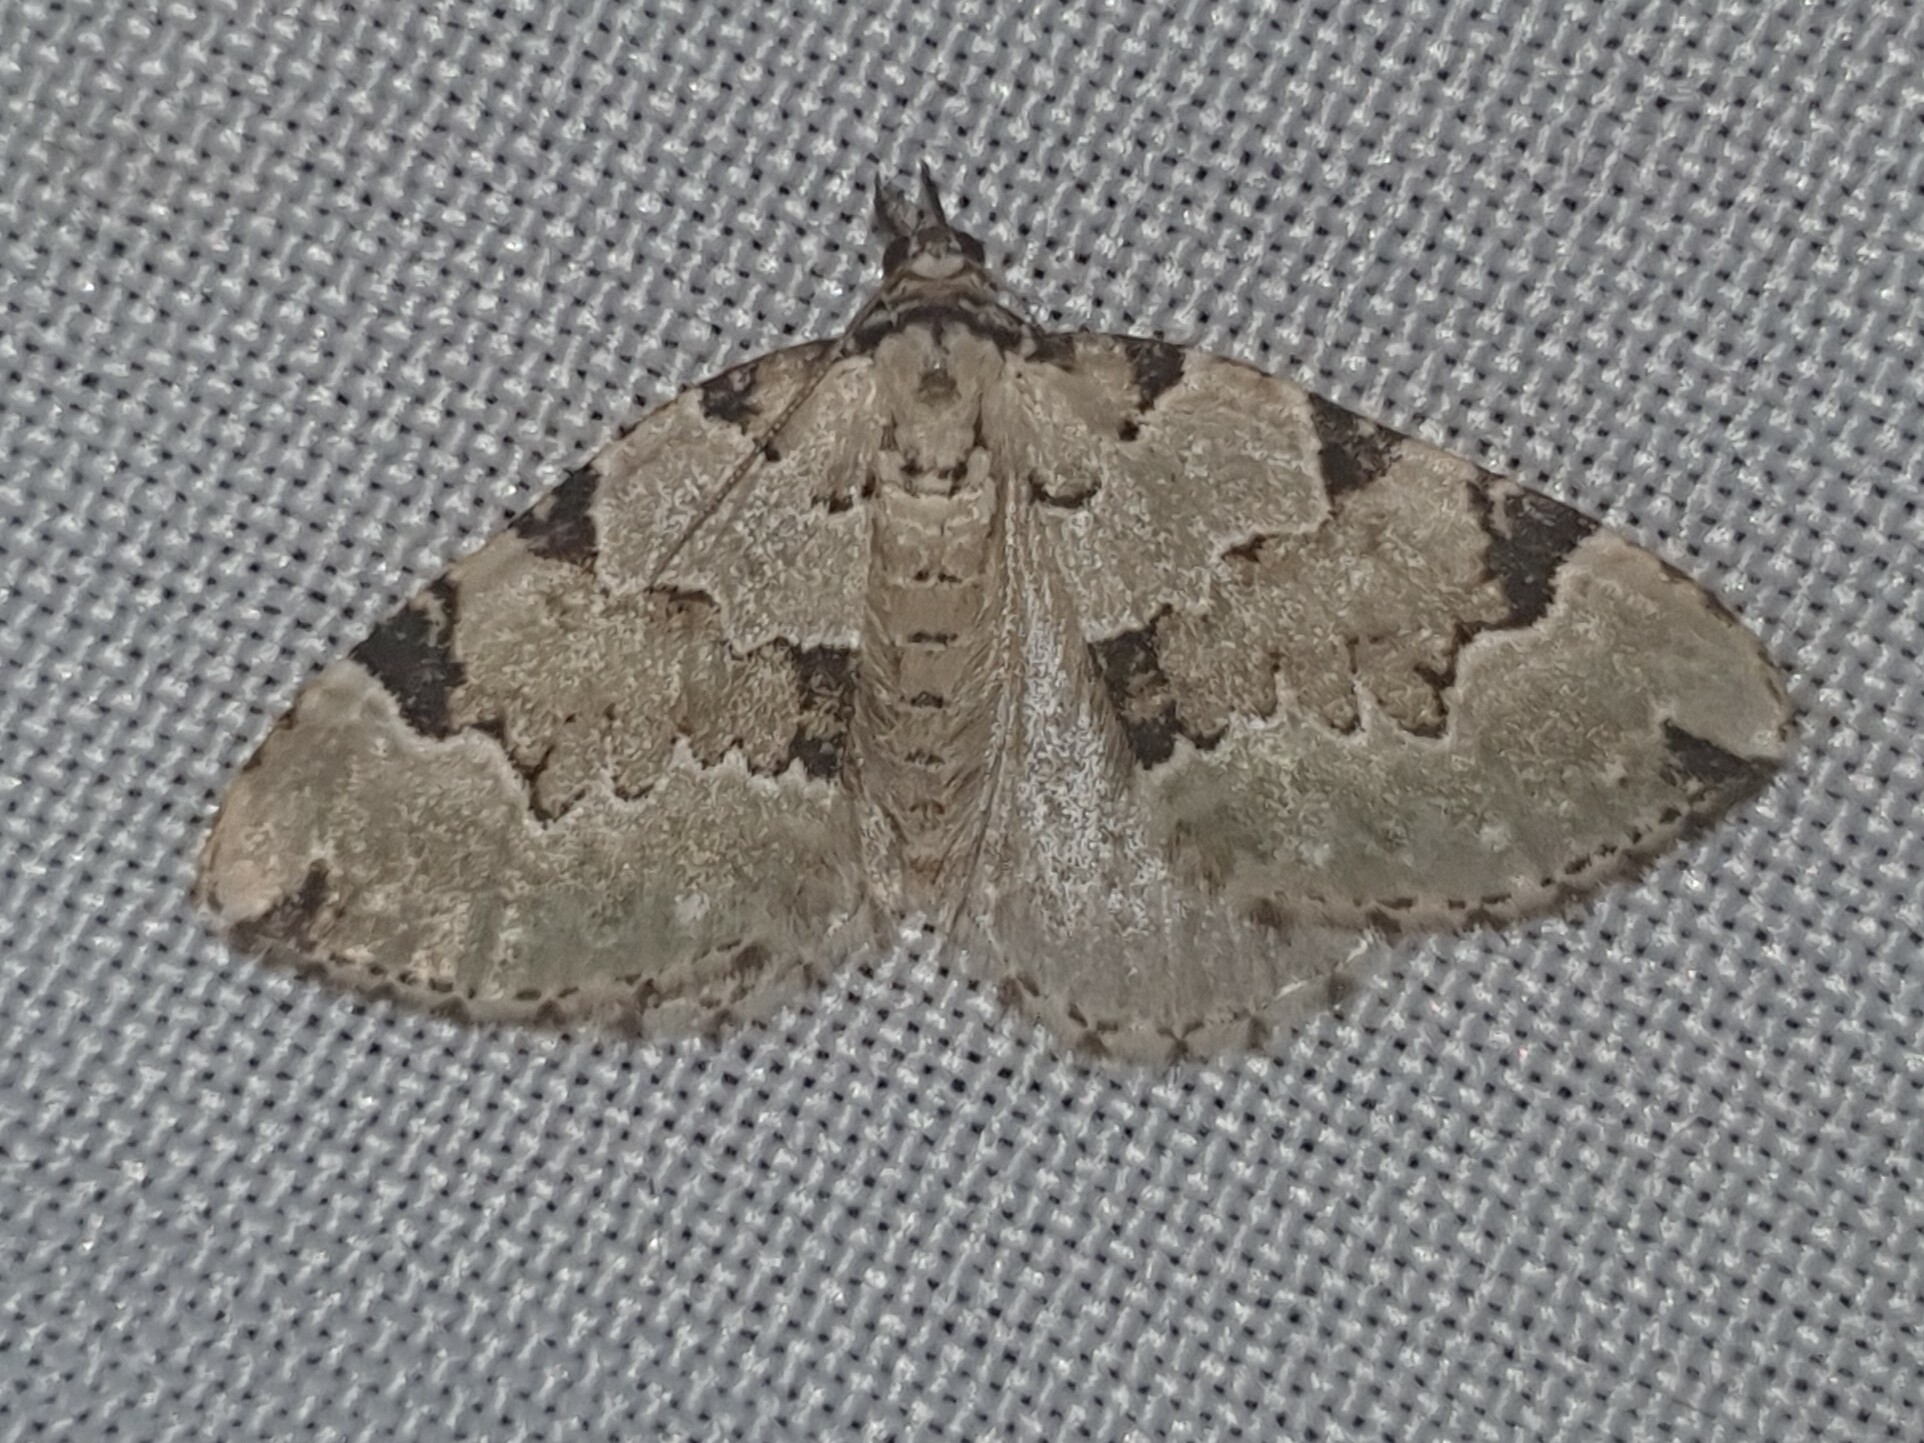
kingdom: Animalia
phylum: Arthropoda
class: Insecta
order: Lepidoptera
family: Geometridae
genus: Colostygia
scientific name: Colostygia pectinataria
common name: Green carpet
